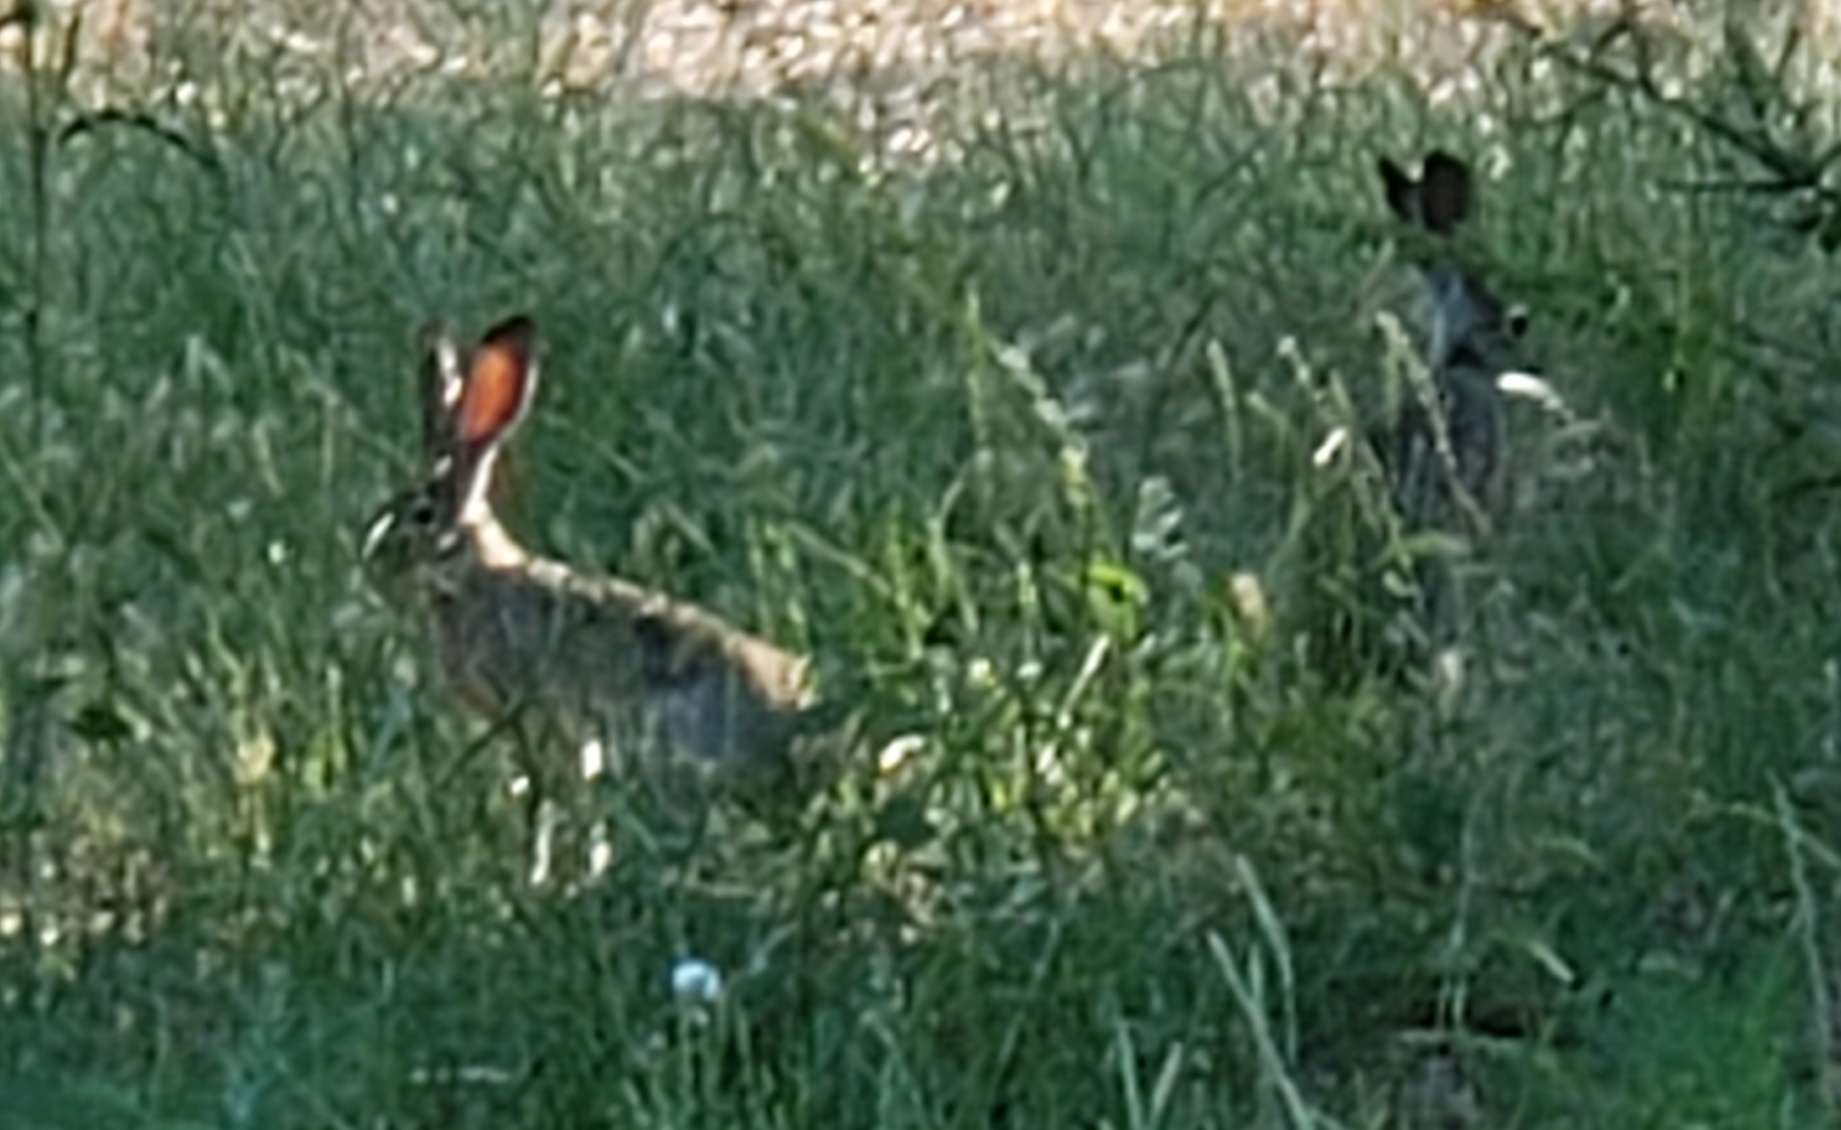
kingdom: Animalia
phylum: Chordata
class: Mammalia
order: Lagomorpha
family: Leporidae
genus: Lepus
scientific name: Lepus californicus
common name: Black-tailed jackrabbit
